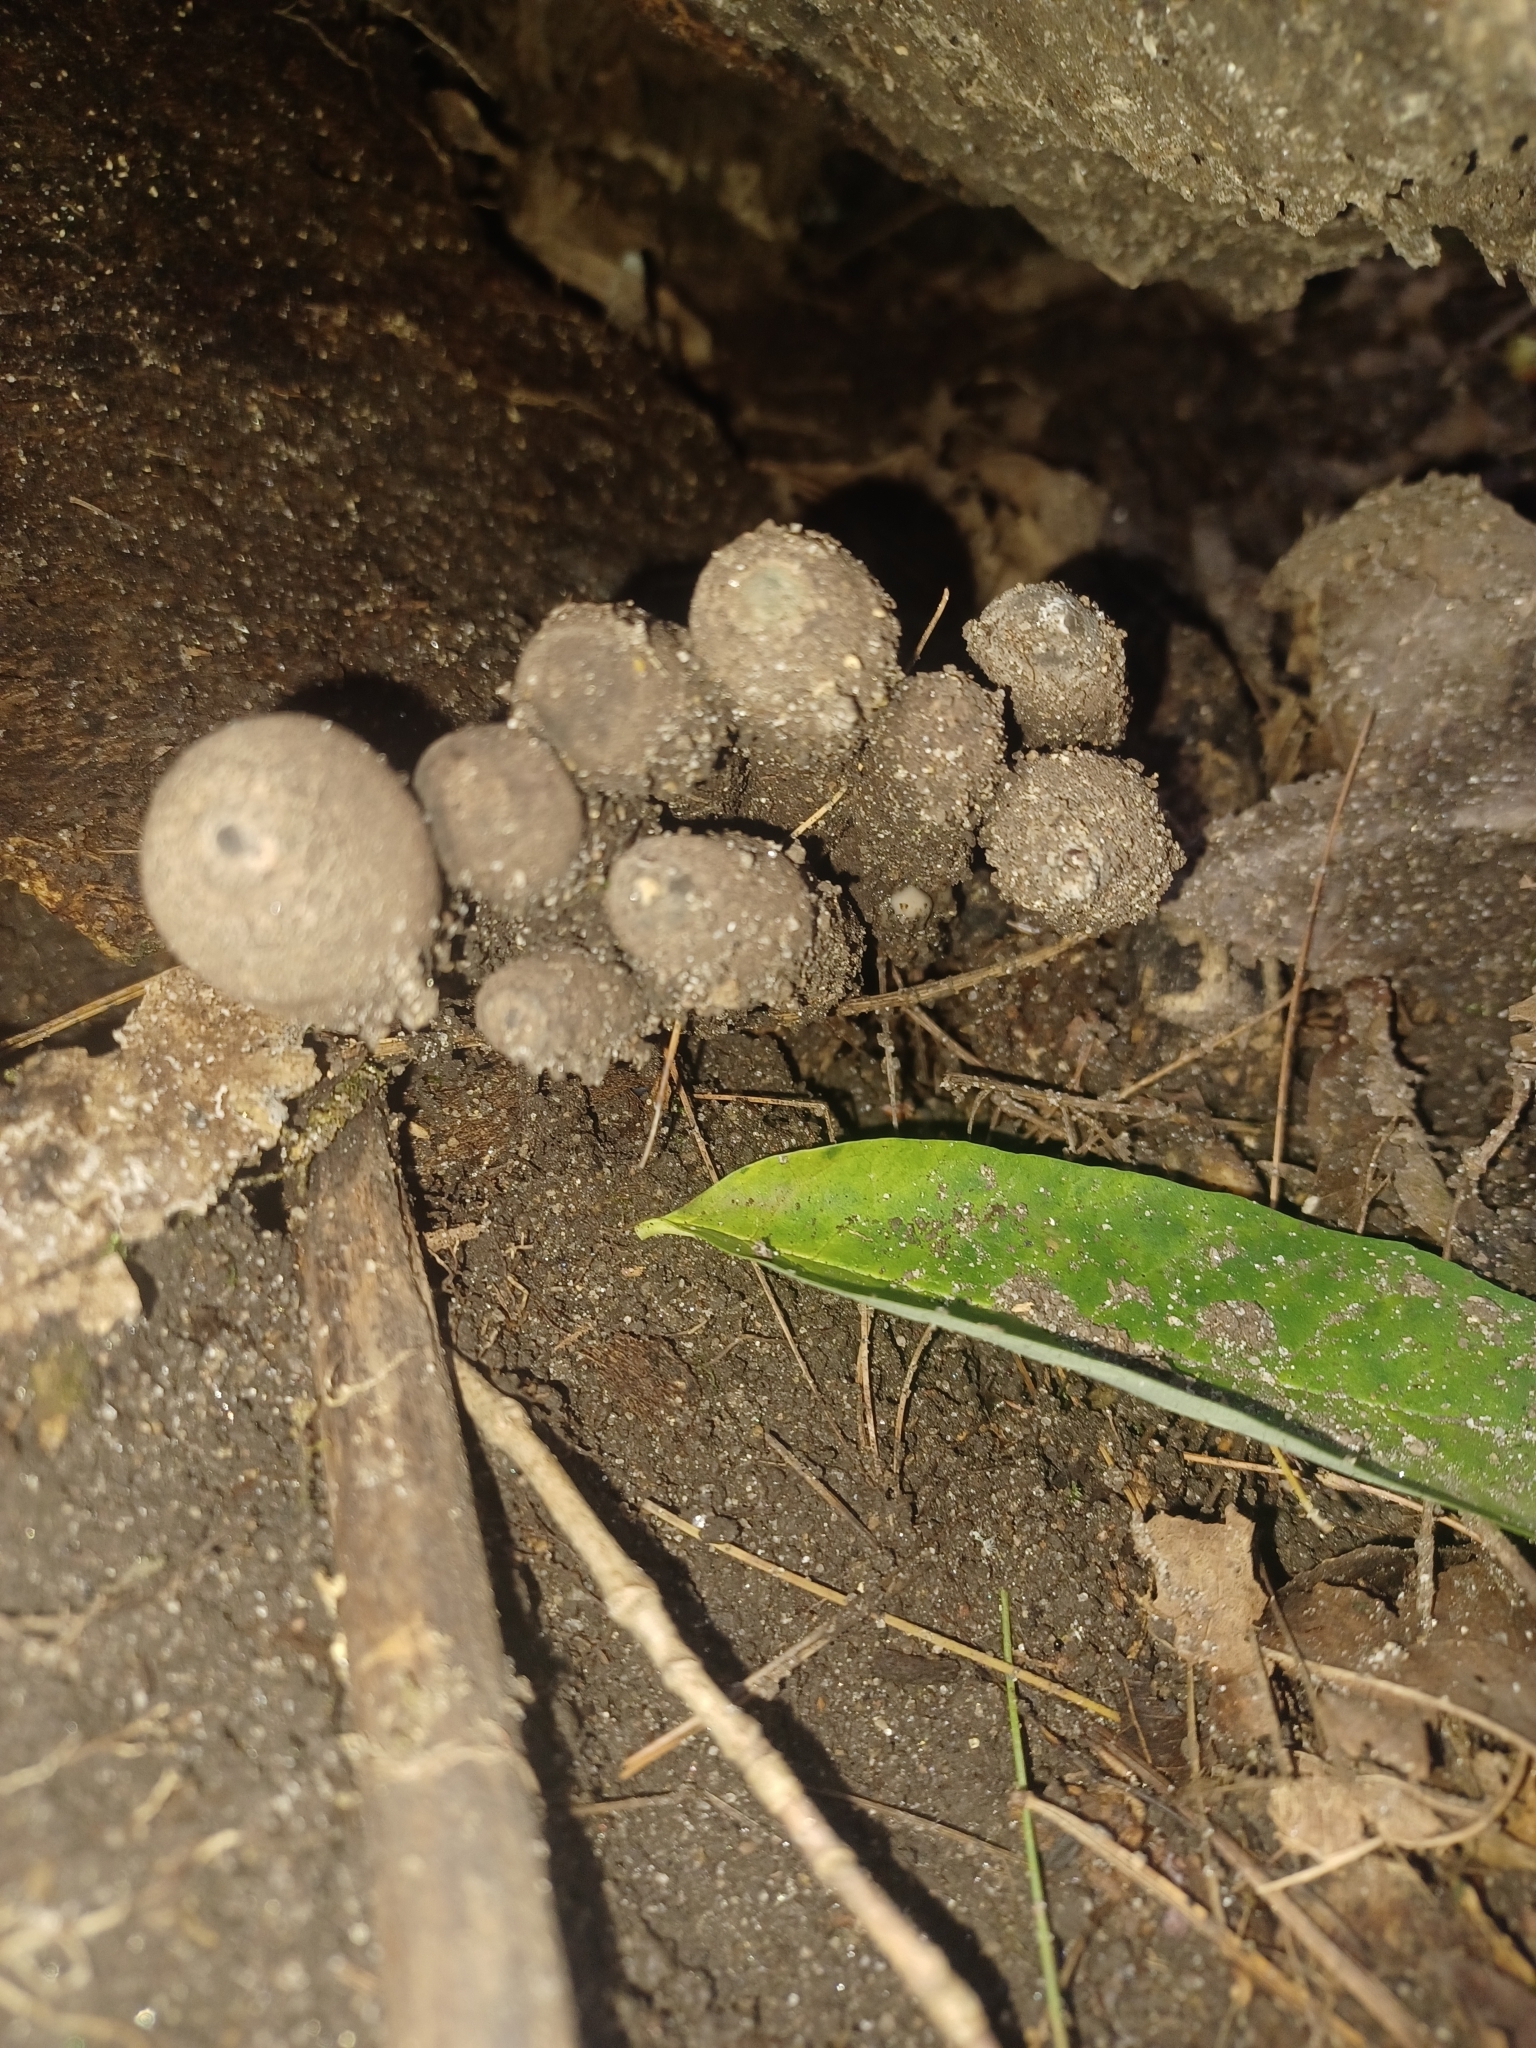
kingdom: Fungi
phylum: Ascomycota
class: Sordariomycetes
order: Xylariales
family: Xylariaceae
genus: Xylaria
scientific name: Xylaria polymorpha
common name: Dead man's fingers
